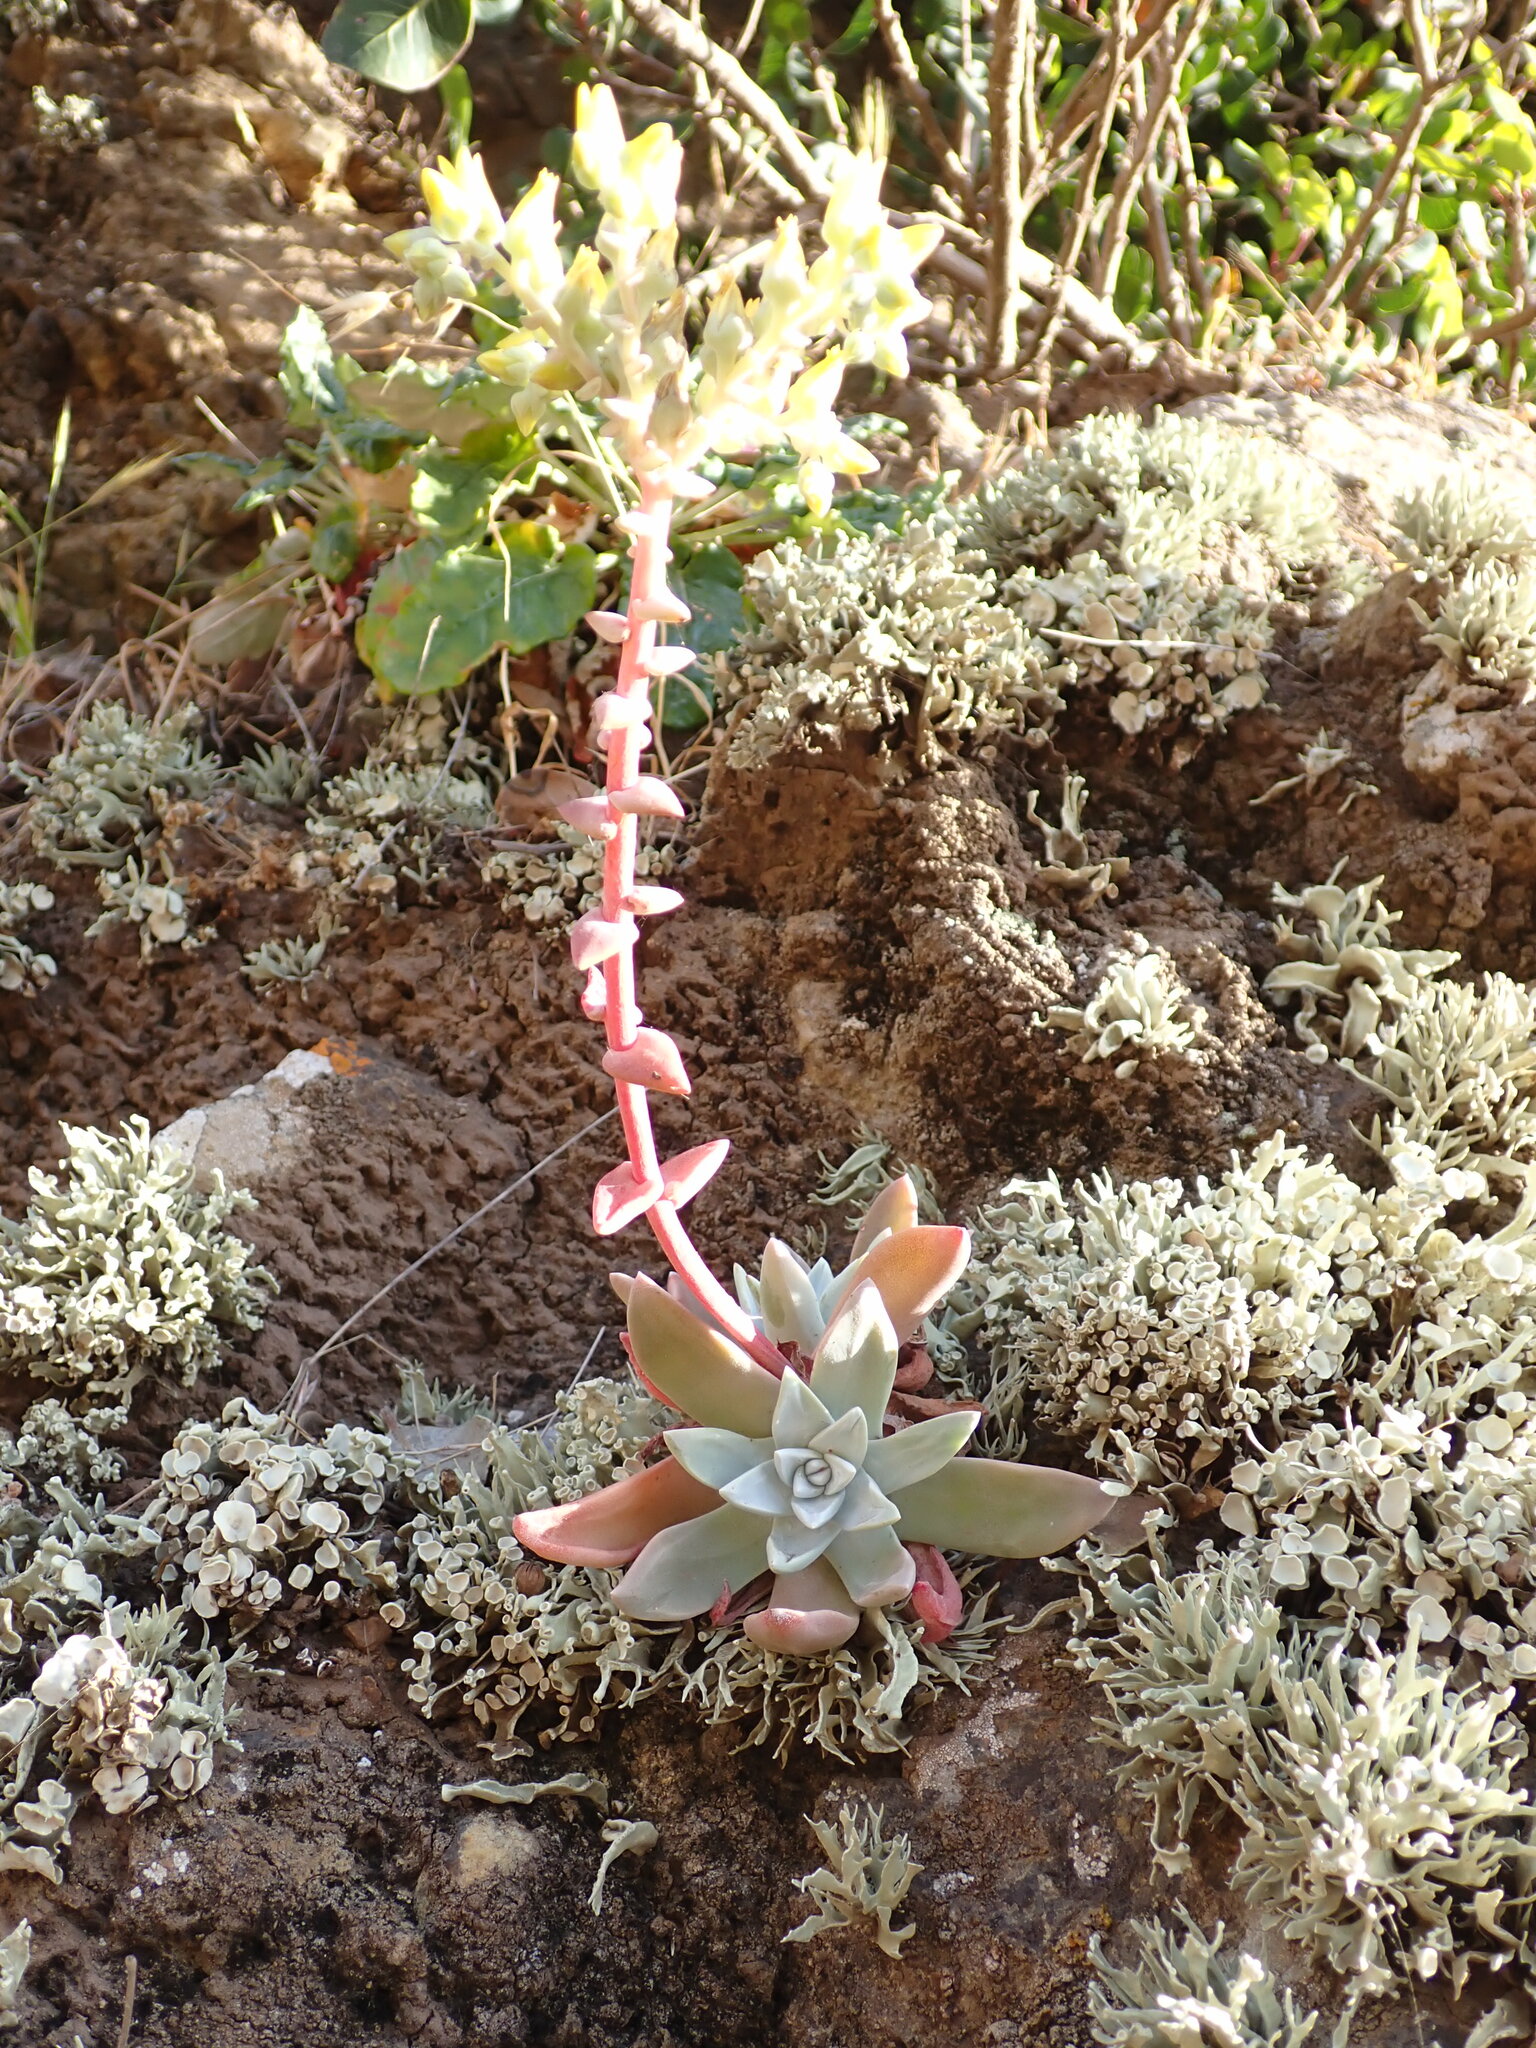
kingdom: Plantae
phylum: Tracheophyta
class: Magnoliopsida
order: Saxifragales
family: Crassulaceae
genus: Dudleya
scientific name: Dudleya greenei
